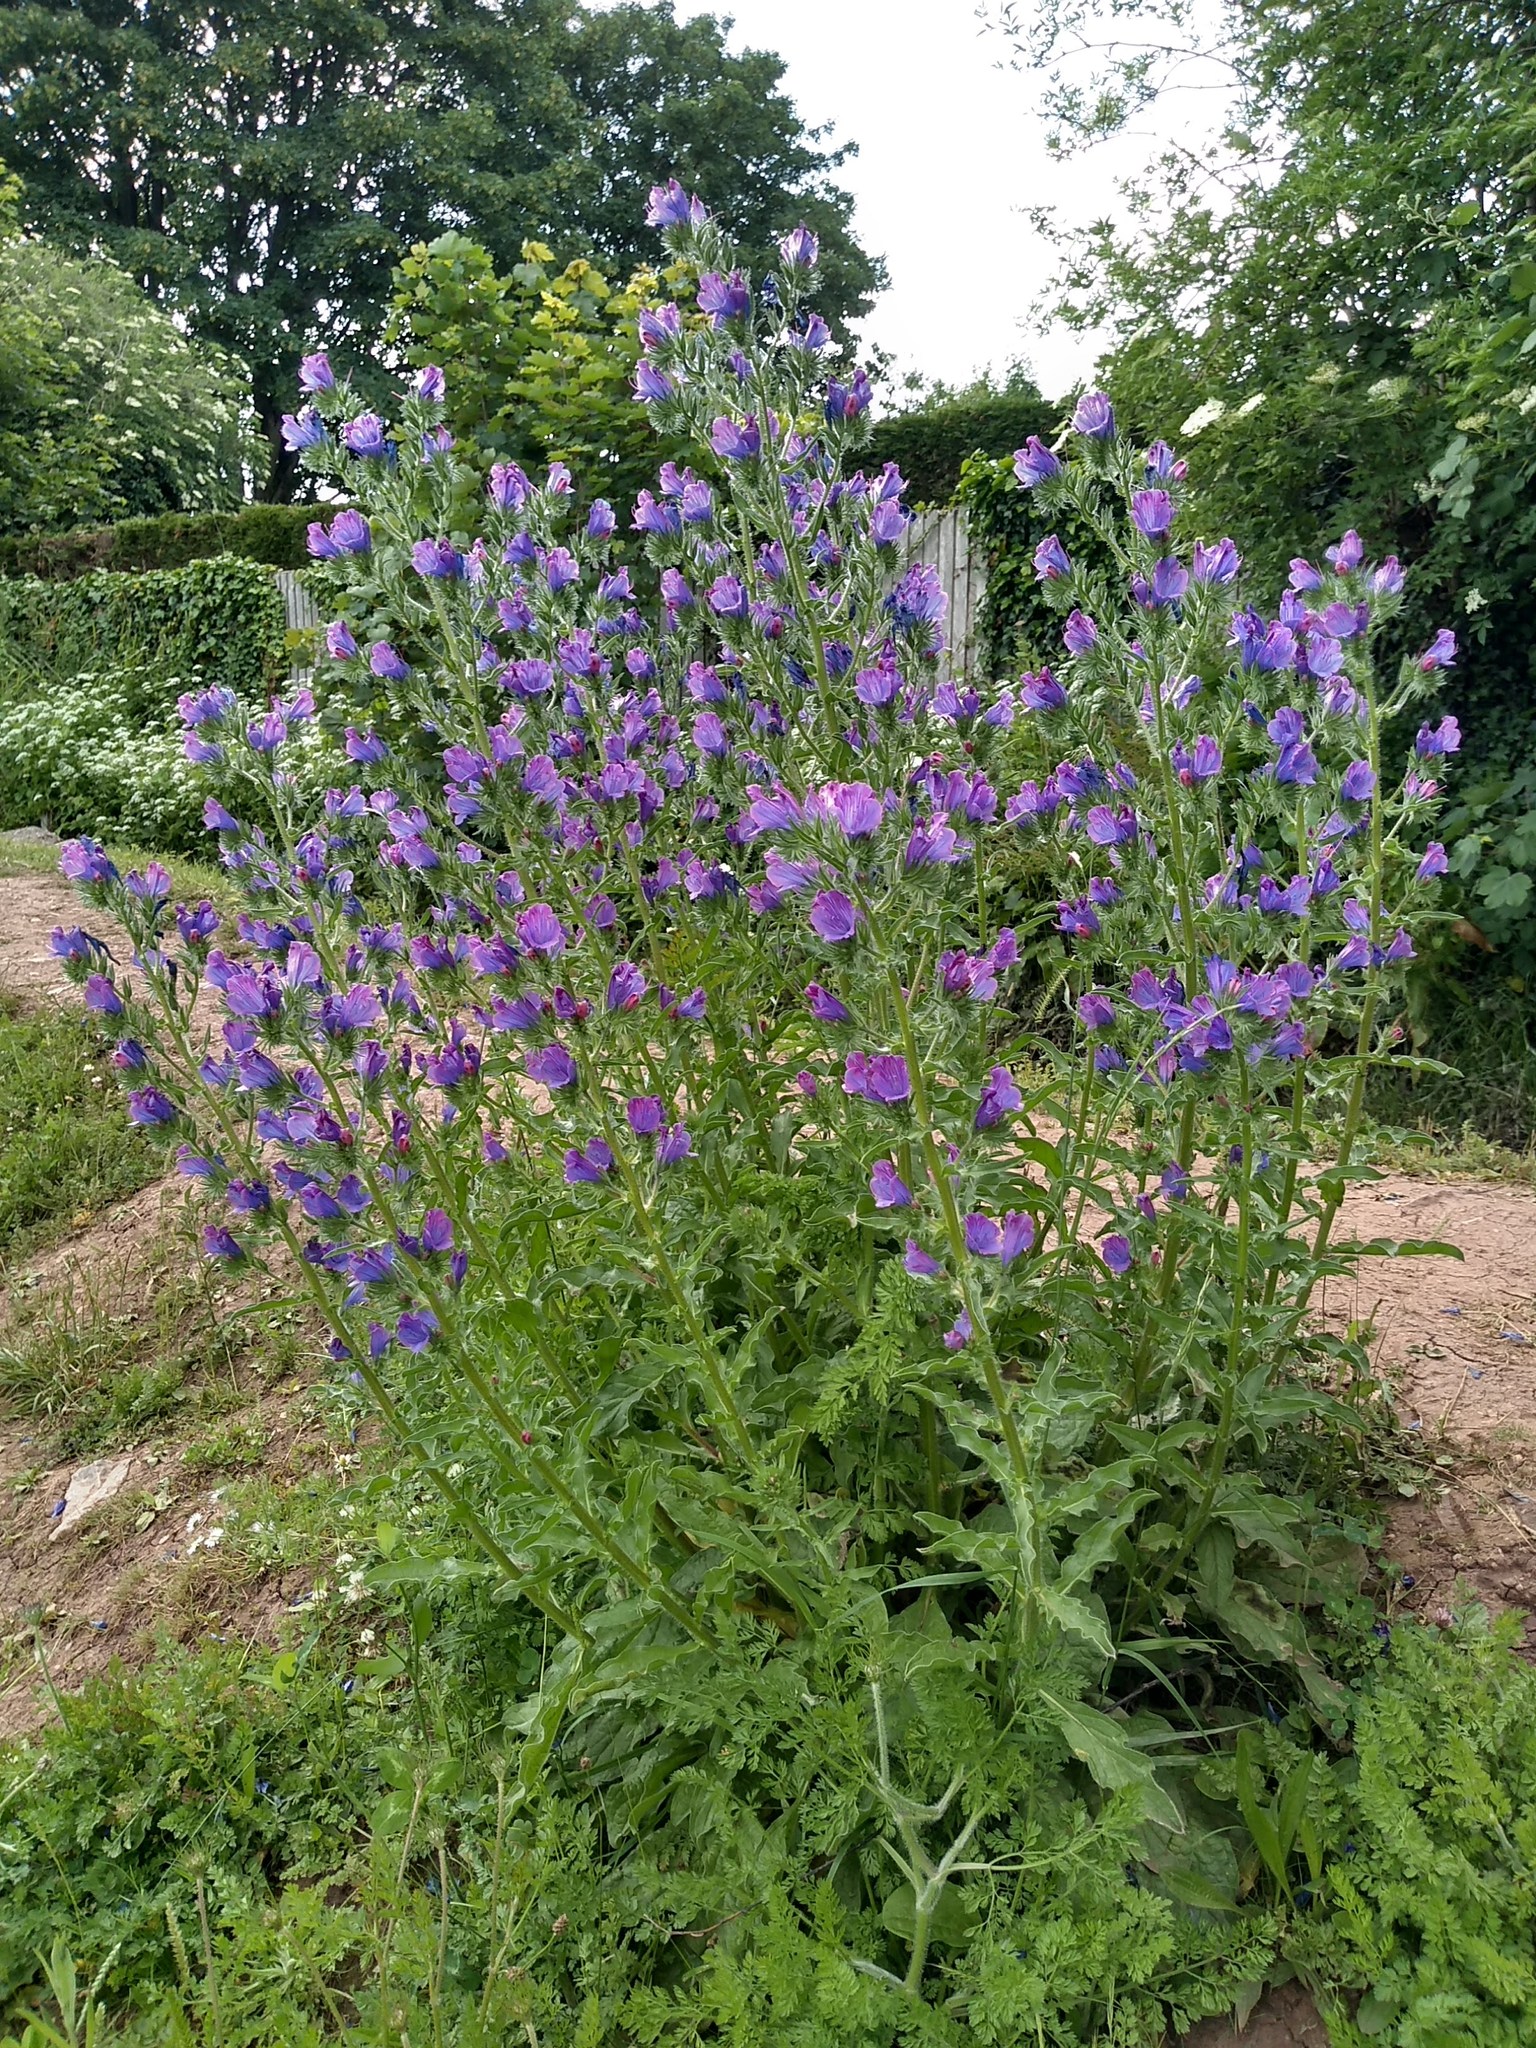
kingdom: Plantae
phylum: Tracheophyta
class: Magnoliopsida
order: Boraginales
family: Boraginaceae
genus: Echium
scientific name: Echium vulgare
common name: Common viper's bugloss
